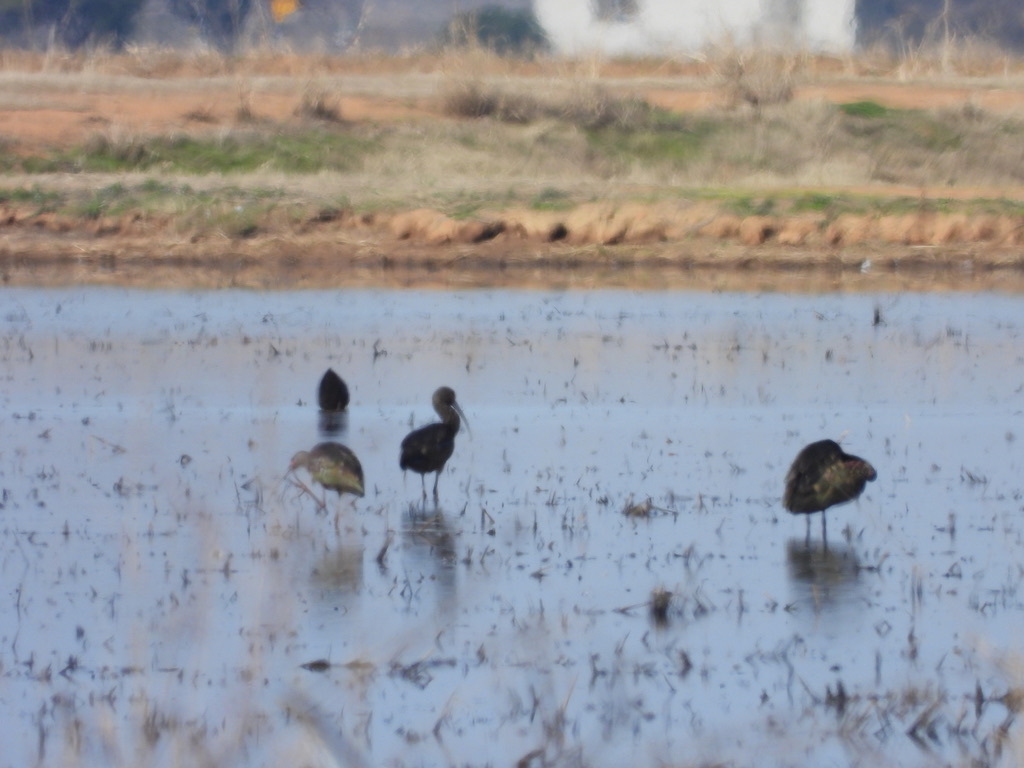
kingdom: Animalia
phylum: Chordata
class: Aves
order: Pelecaniformes
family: Threskiornithidae
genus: Plegadis
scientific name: Plegadis chihi
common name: White-faced ibis
